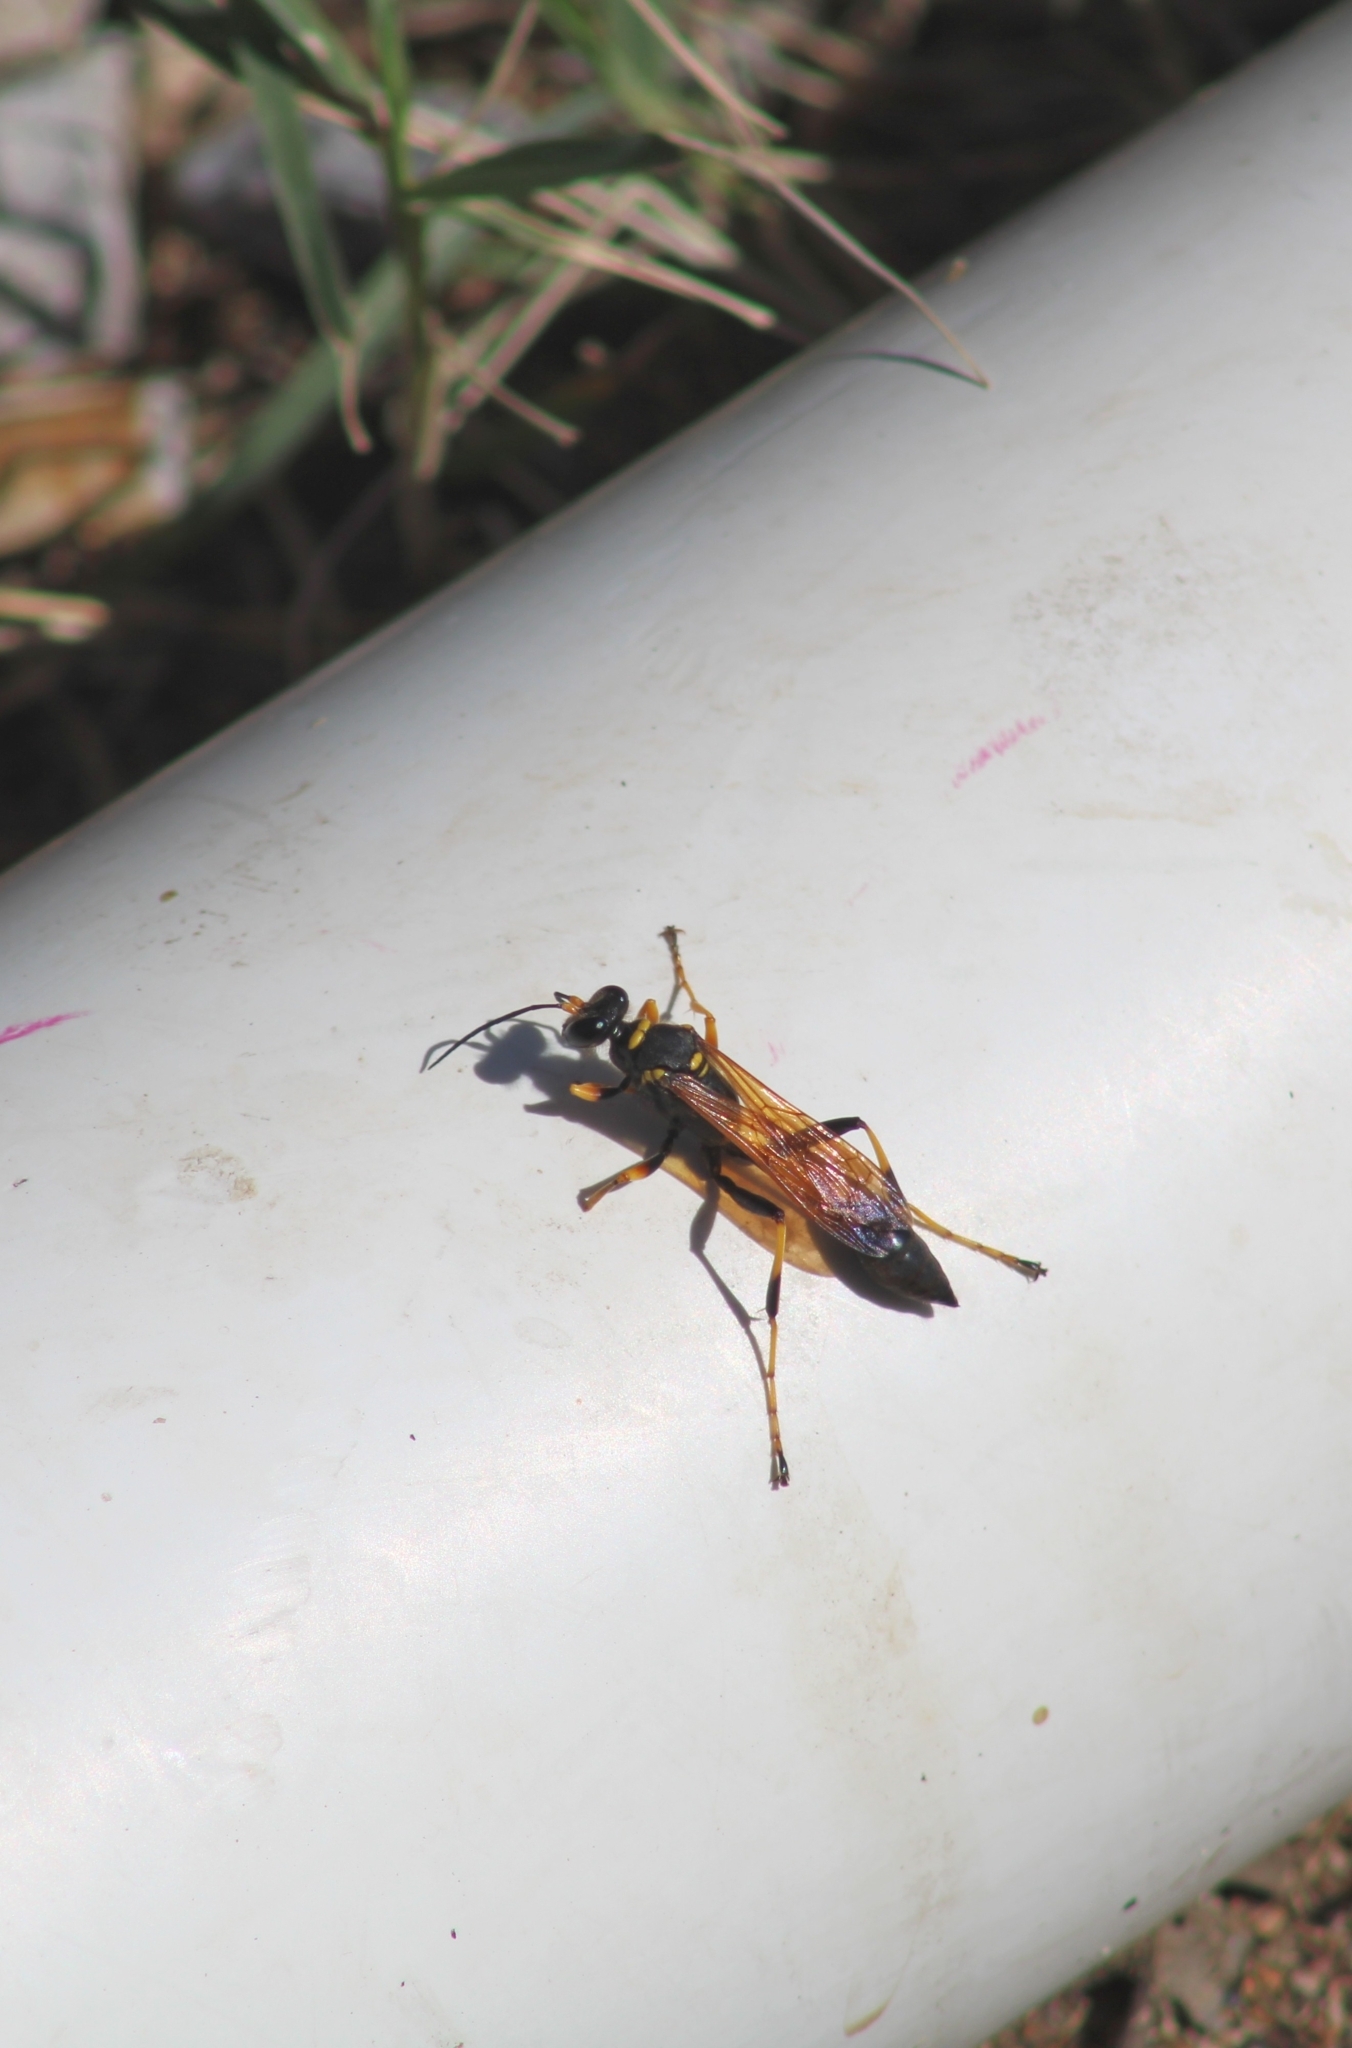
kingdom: Animalia
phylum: Arthropoda
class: Insecta
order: Hymenoptera
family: Sphecidae
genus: Sceliphron
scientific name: Sceliphron caementarium
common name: Mud dauber
